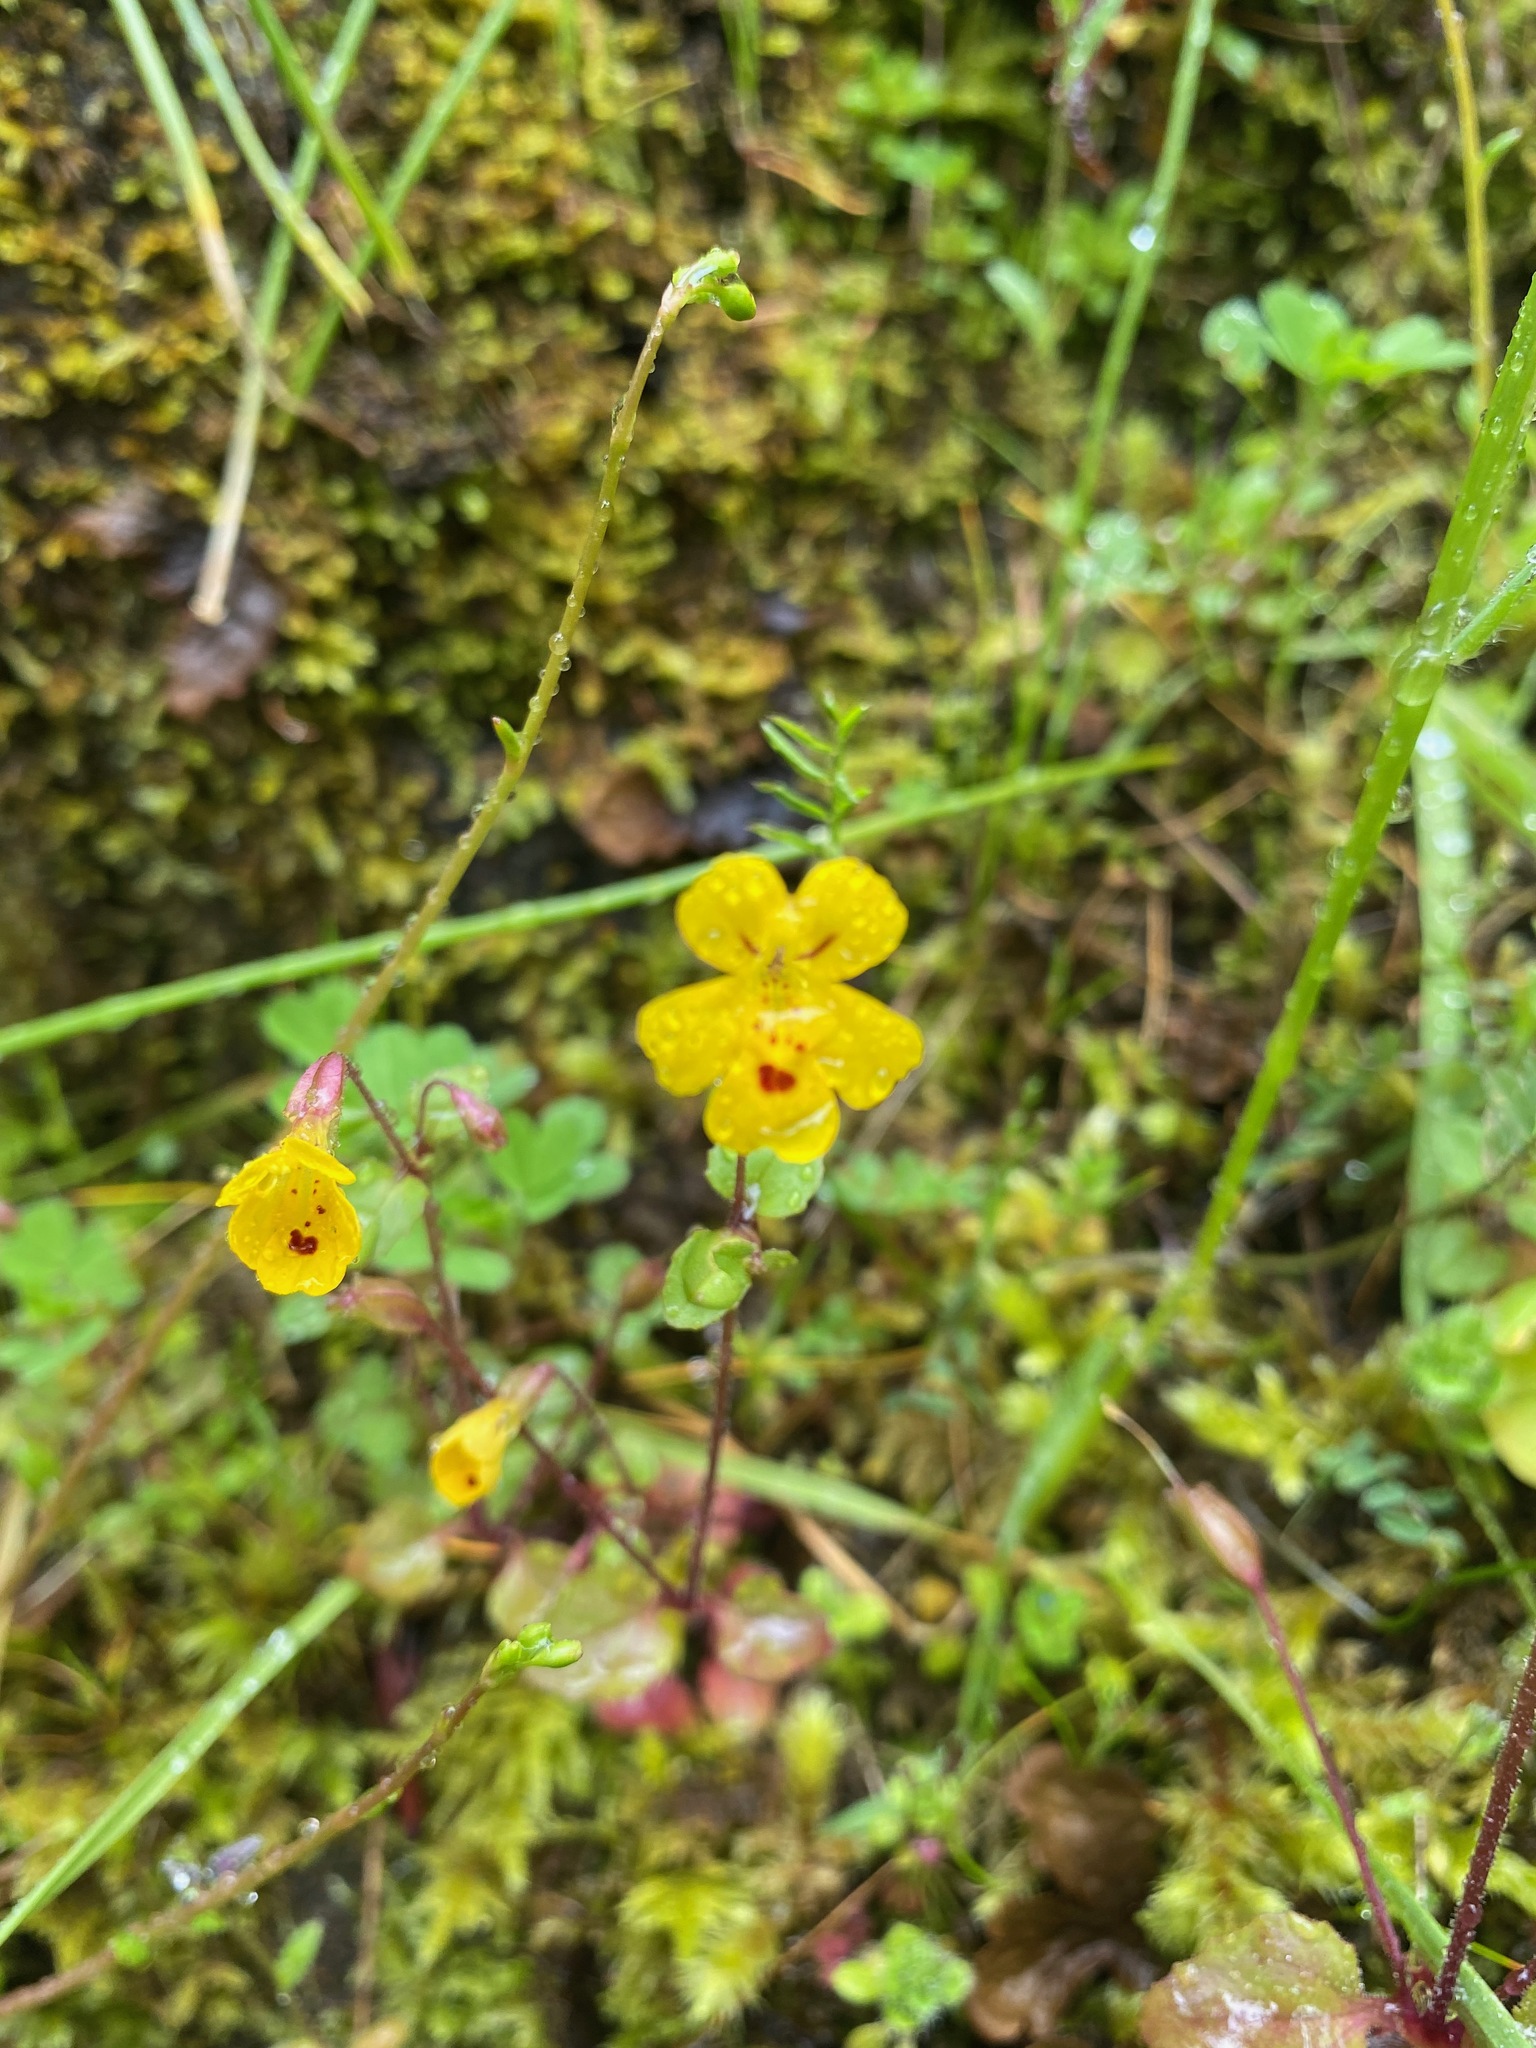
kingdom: Plantae
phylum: Tracheophyta
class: Magnoliopsida
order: Lamiales
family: Phrymaceae
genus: Erythranthe
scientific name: Erythranthe alsinoides
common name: Chickweed monkeyflower
